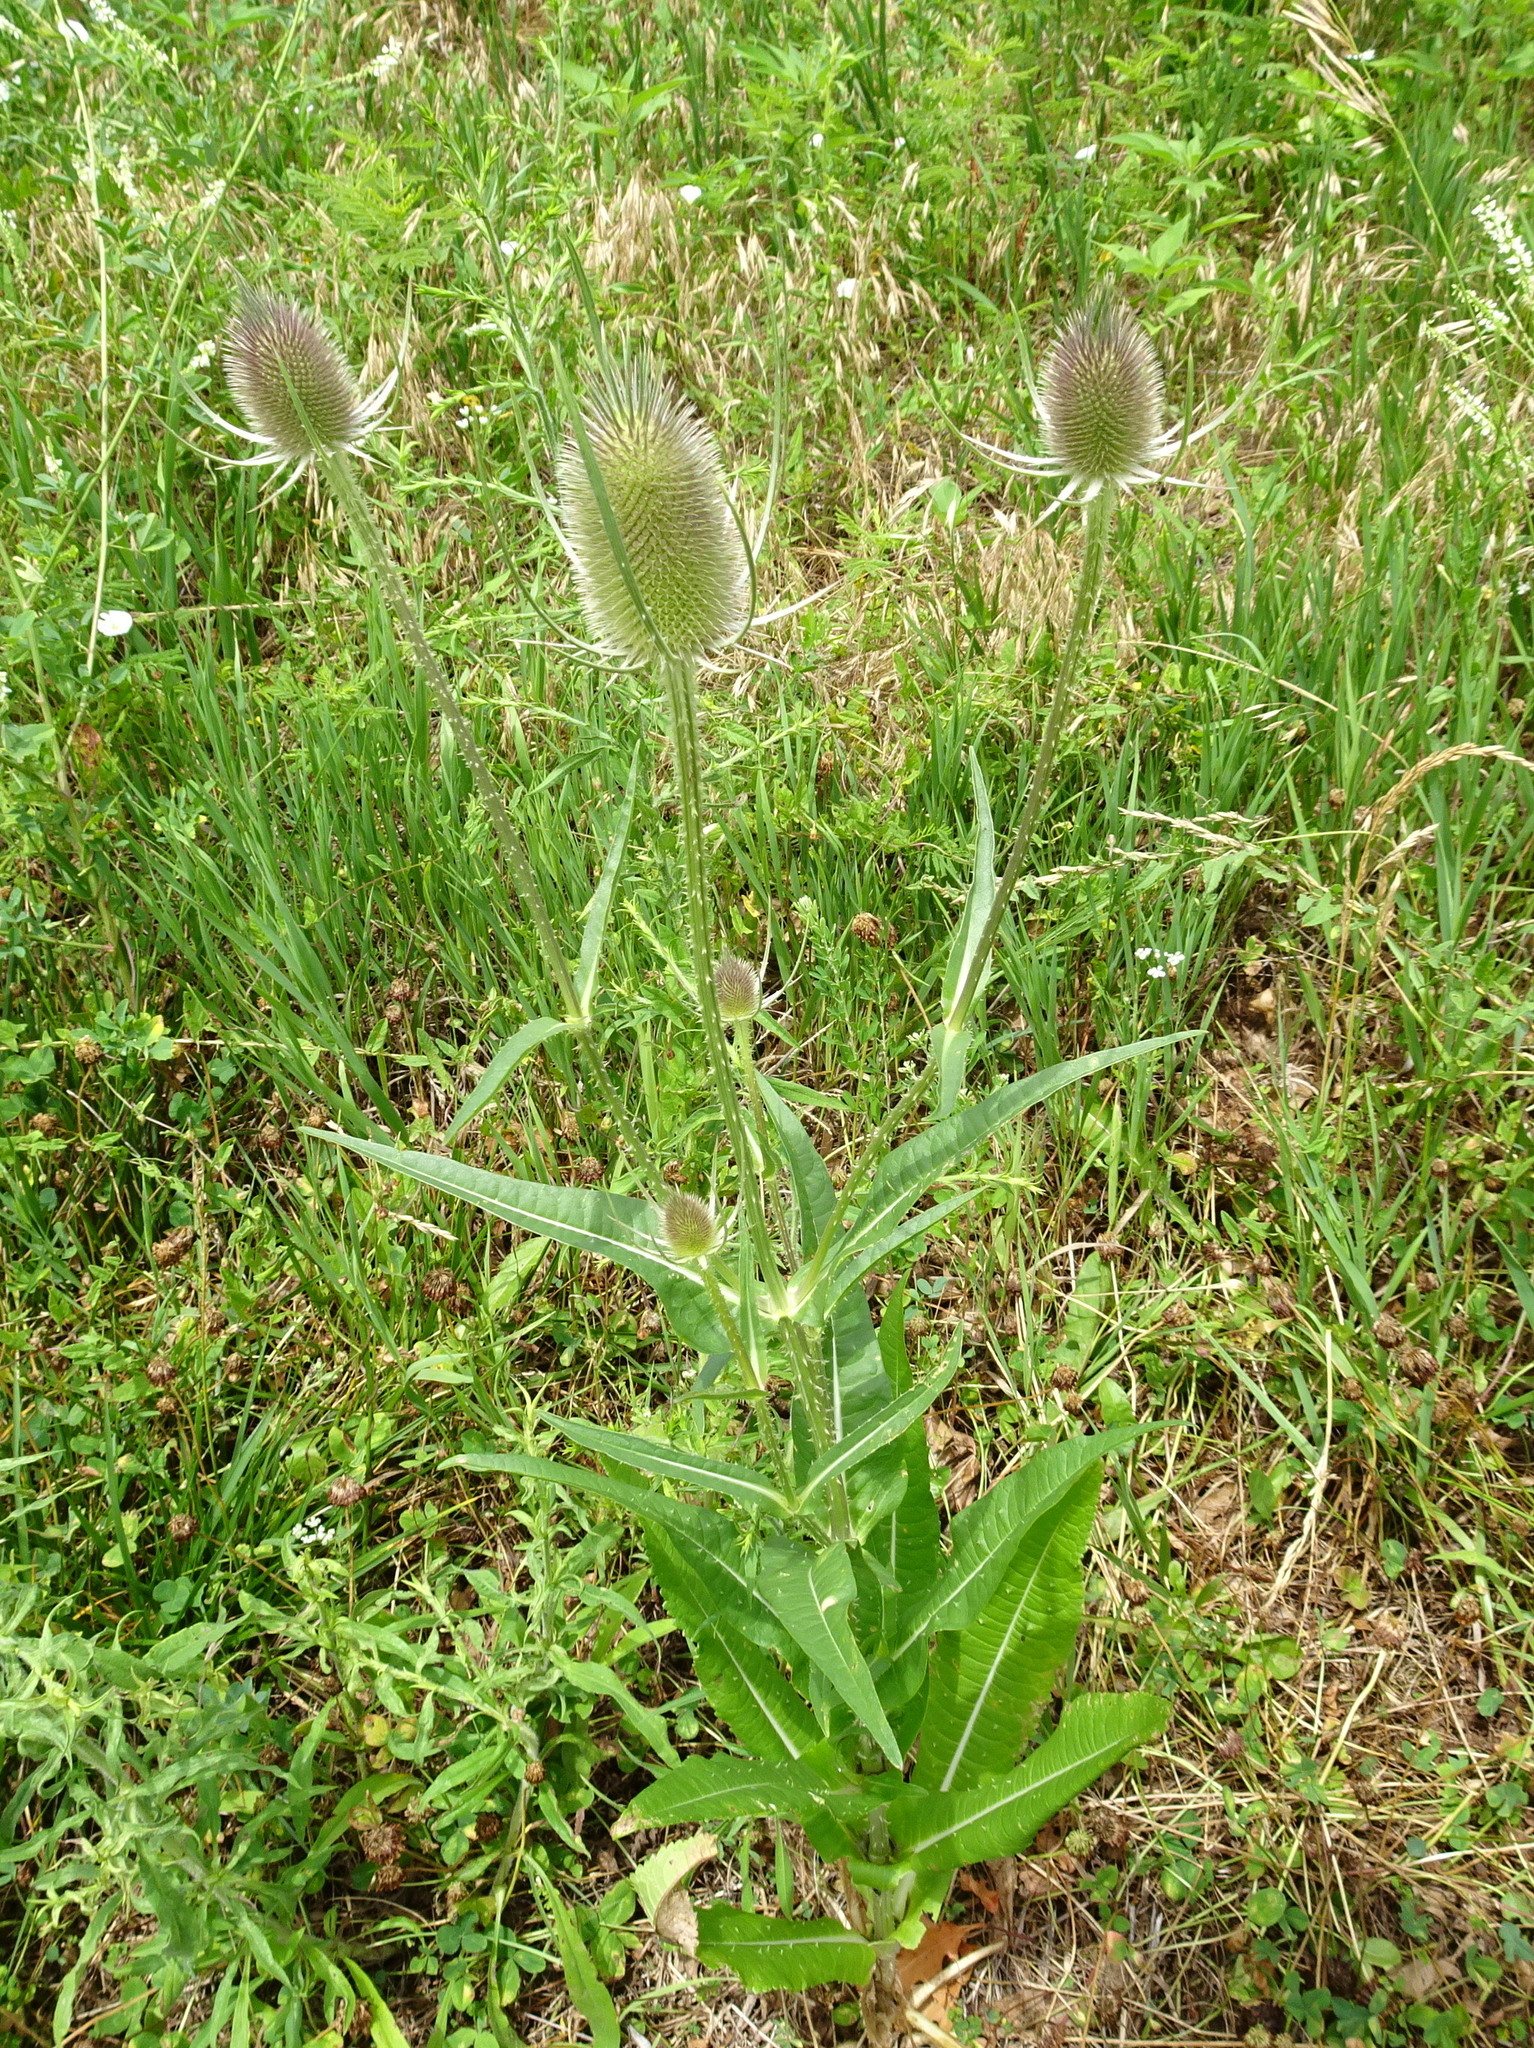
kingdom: Plantae
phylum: Tracheophyta
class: Magnoliopsida
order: Dipsacales
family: Caprifoliaceae
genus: Dipsacus
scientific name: Dipsacus fullonum
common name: Teasel
